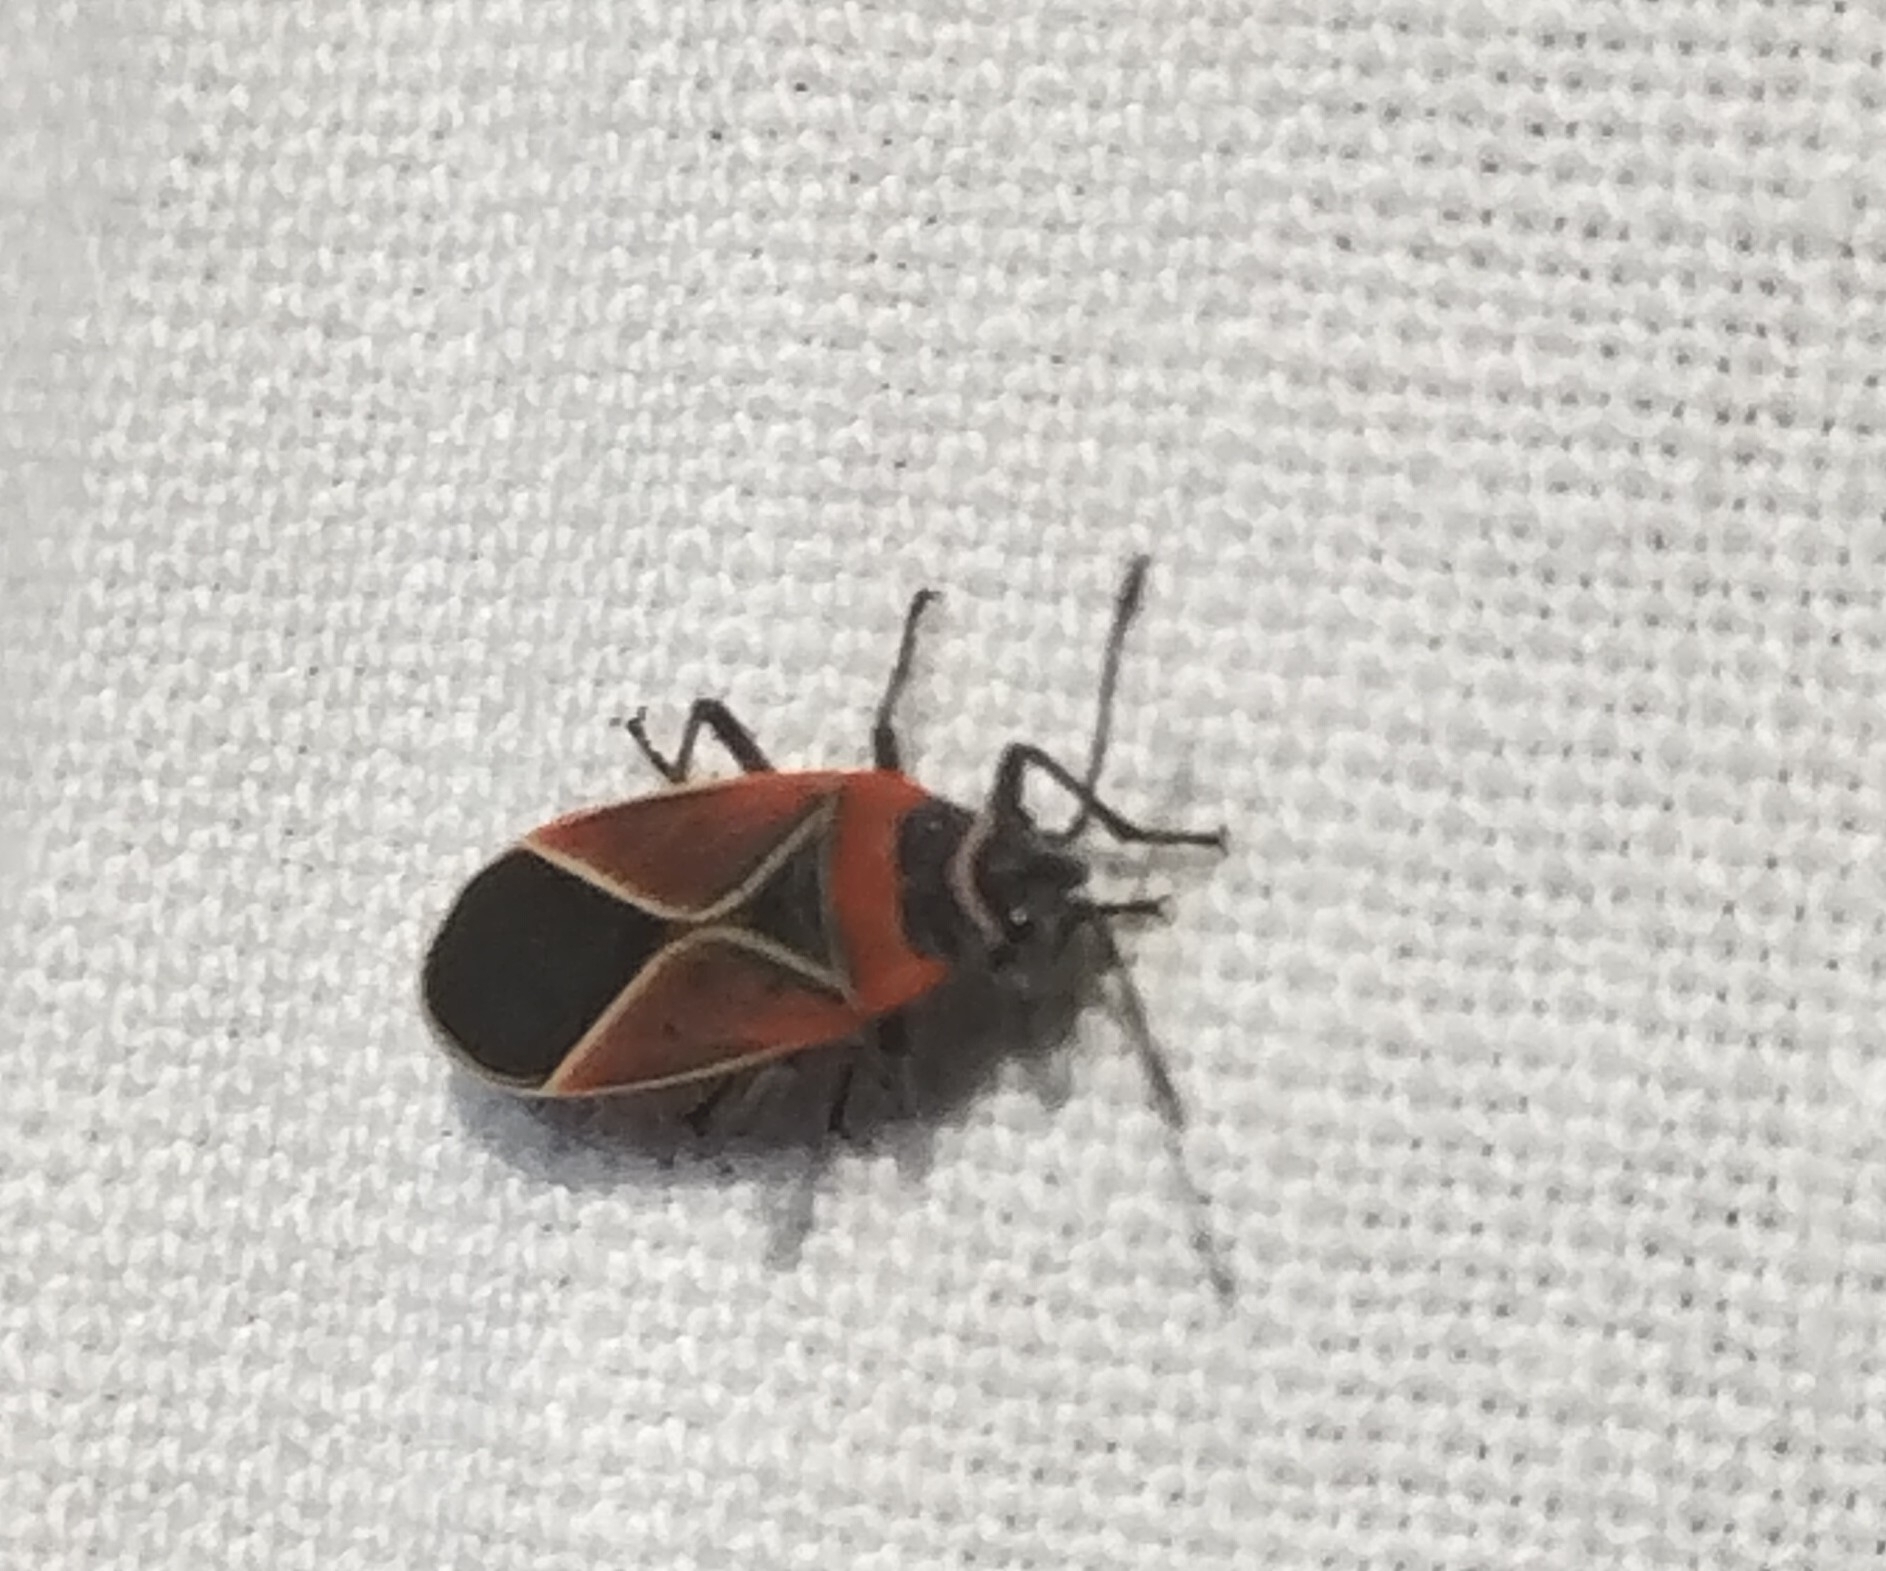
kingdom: Animalia
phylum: Arthropoda
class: Insecta
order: Hemiptera
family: Lygaeidae
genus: Neacoryphus
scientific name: Neacoryphus bicrucis
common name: Lygaeid bug
